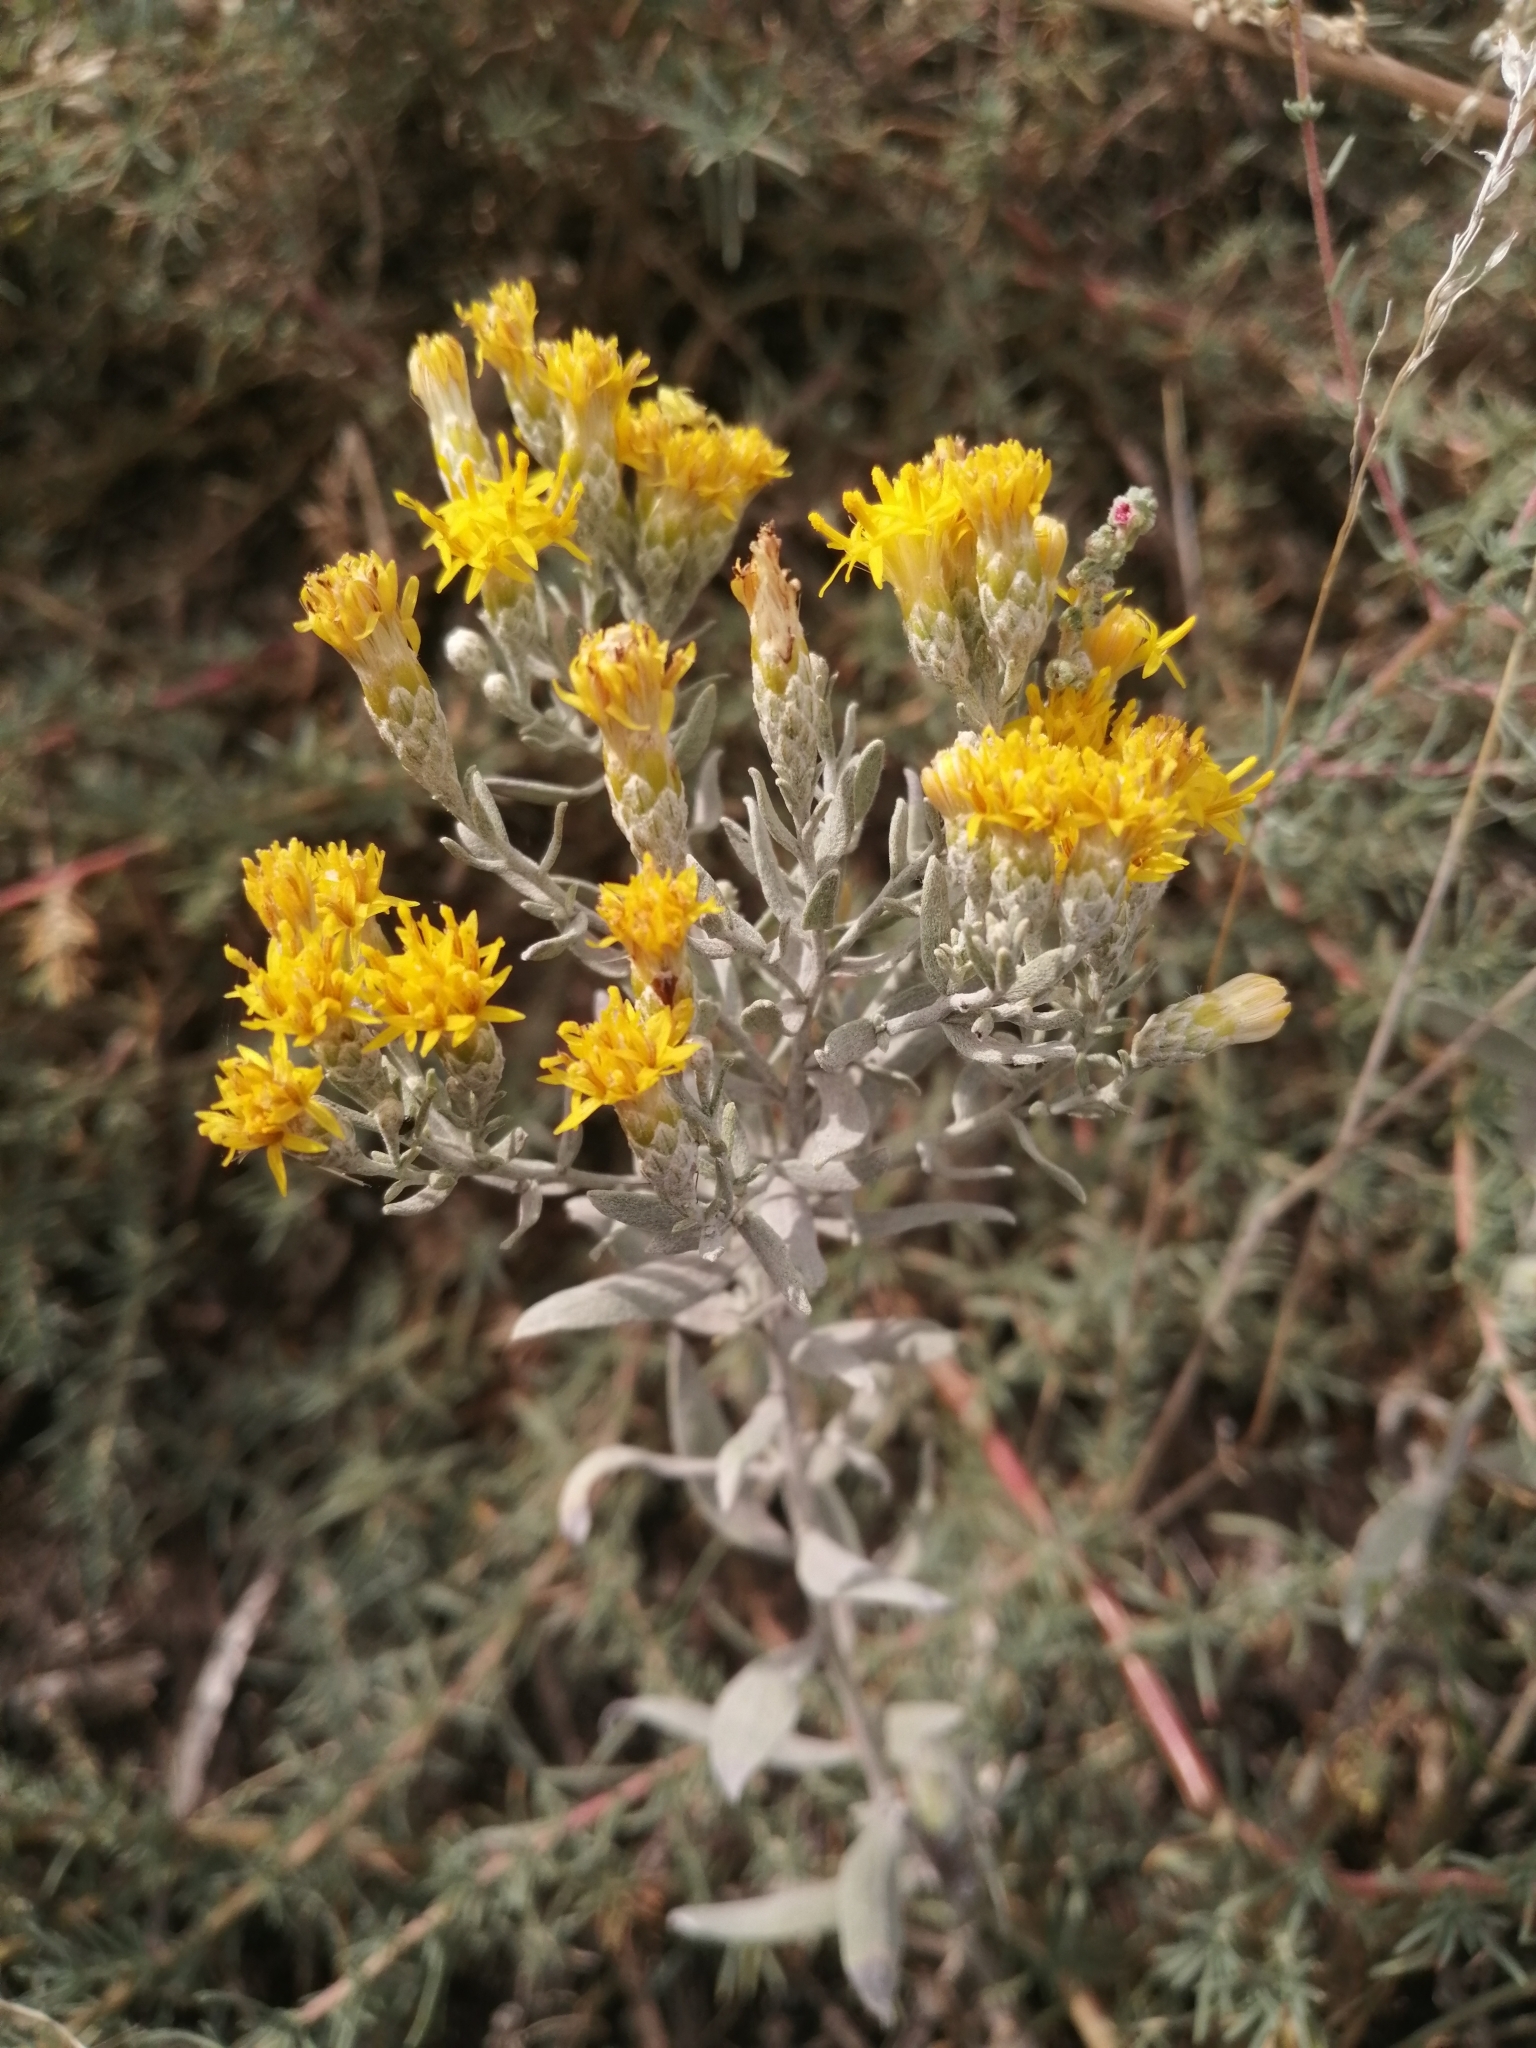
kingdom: Plantae
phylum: Tracheophyta
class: Magnoliopsida
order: Asterales
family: Asteraceae
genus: Galatella
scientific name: Galatella villosa
